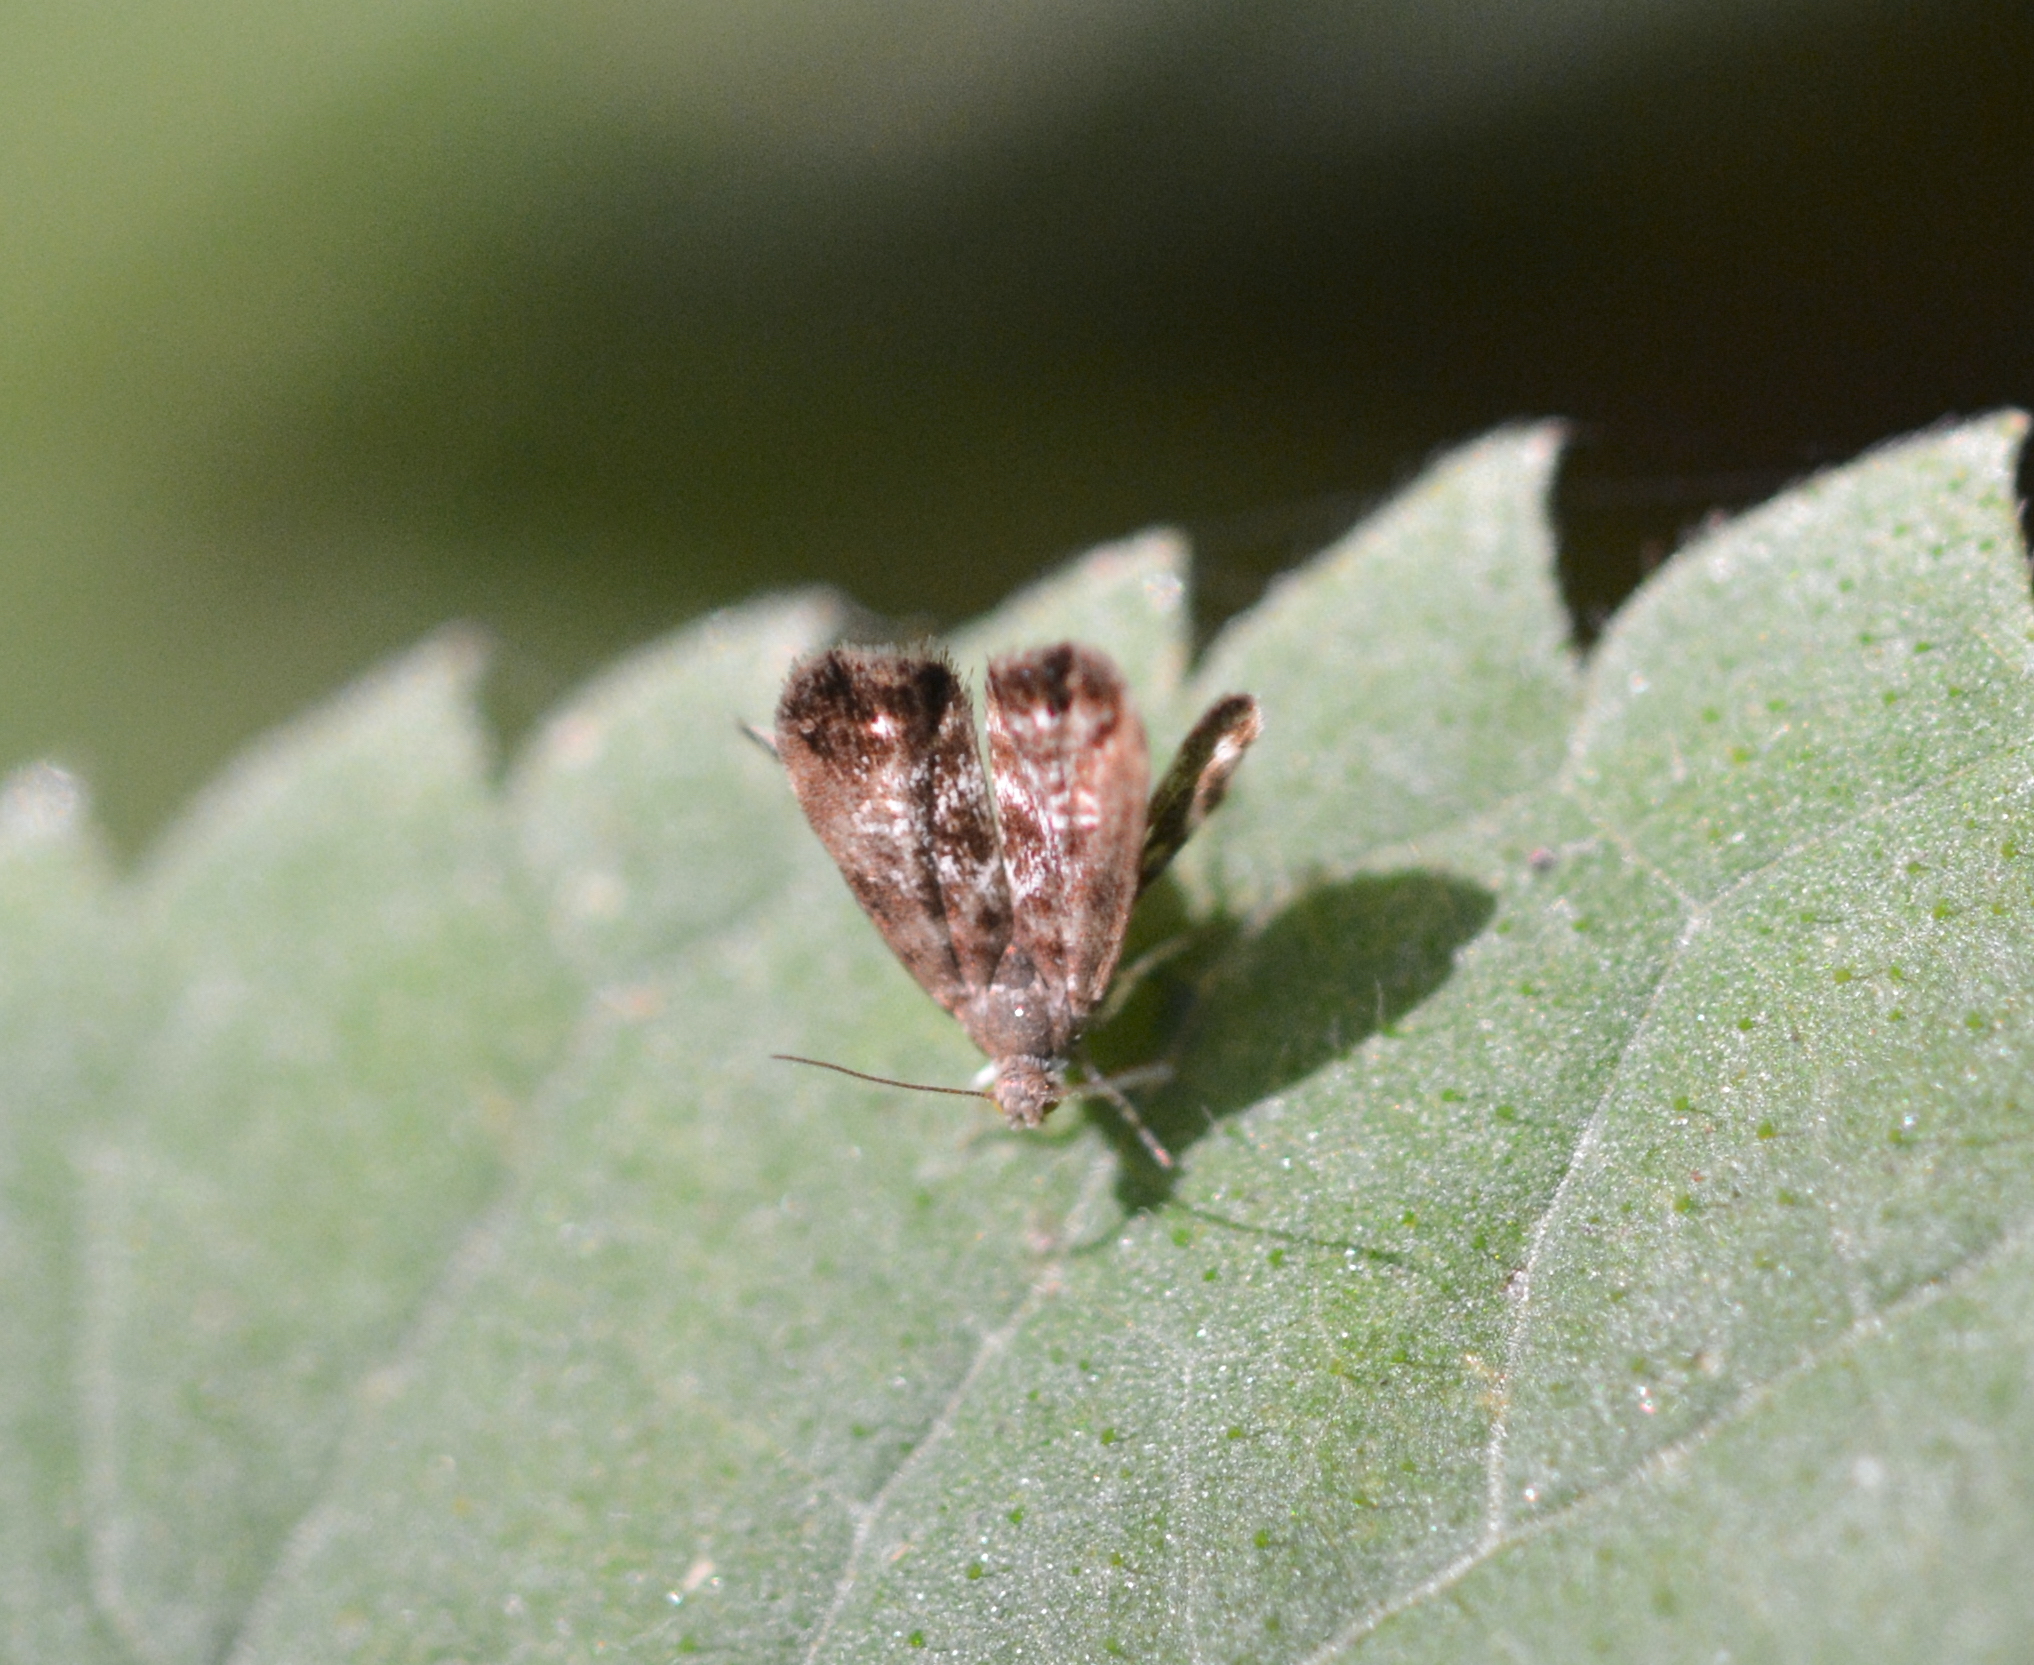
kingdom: Animalia
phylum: Arthropoda
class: Insecta
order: Lepidoptera
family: Choreutidae
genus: Brenthia
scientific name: Brenthia pavonacella
